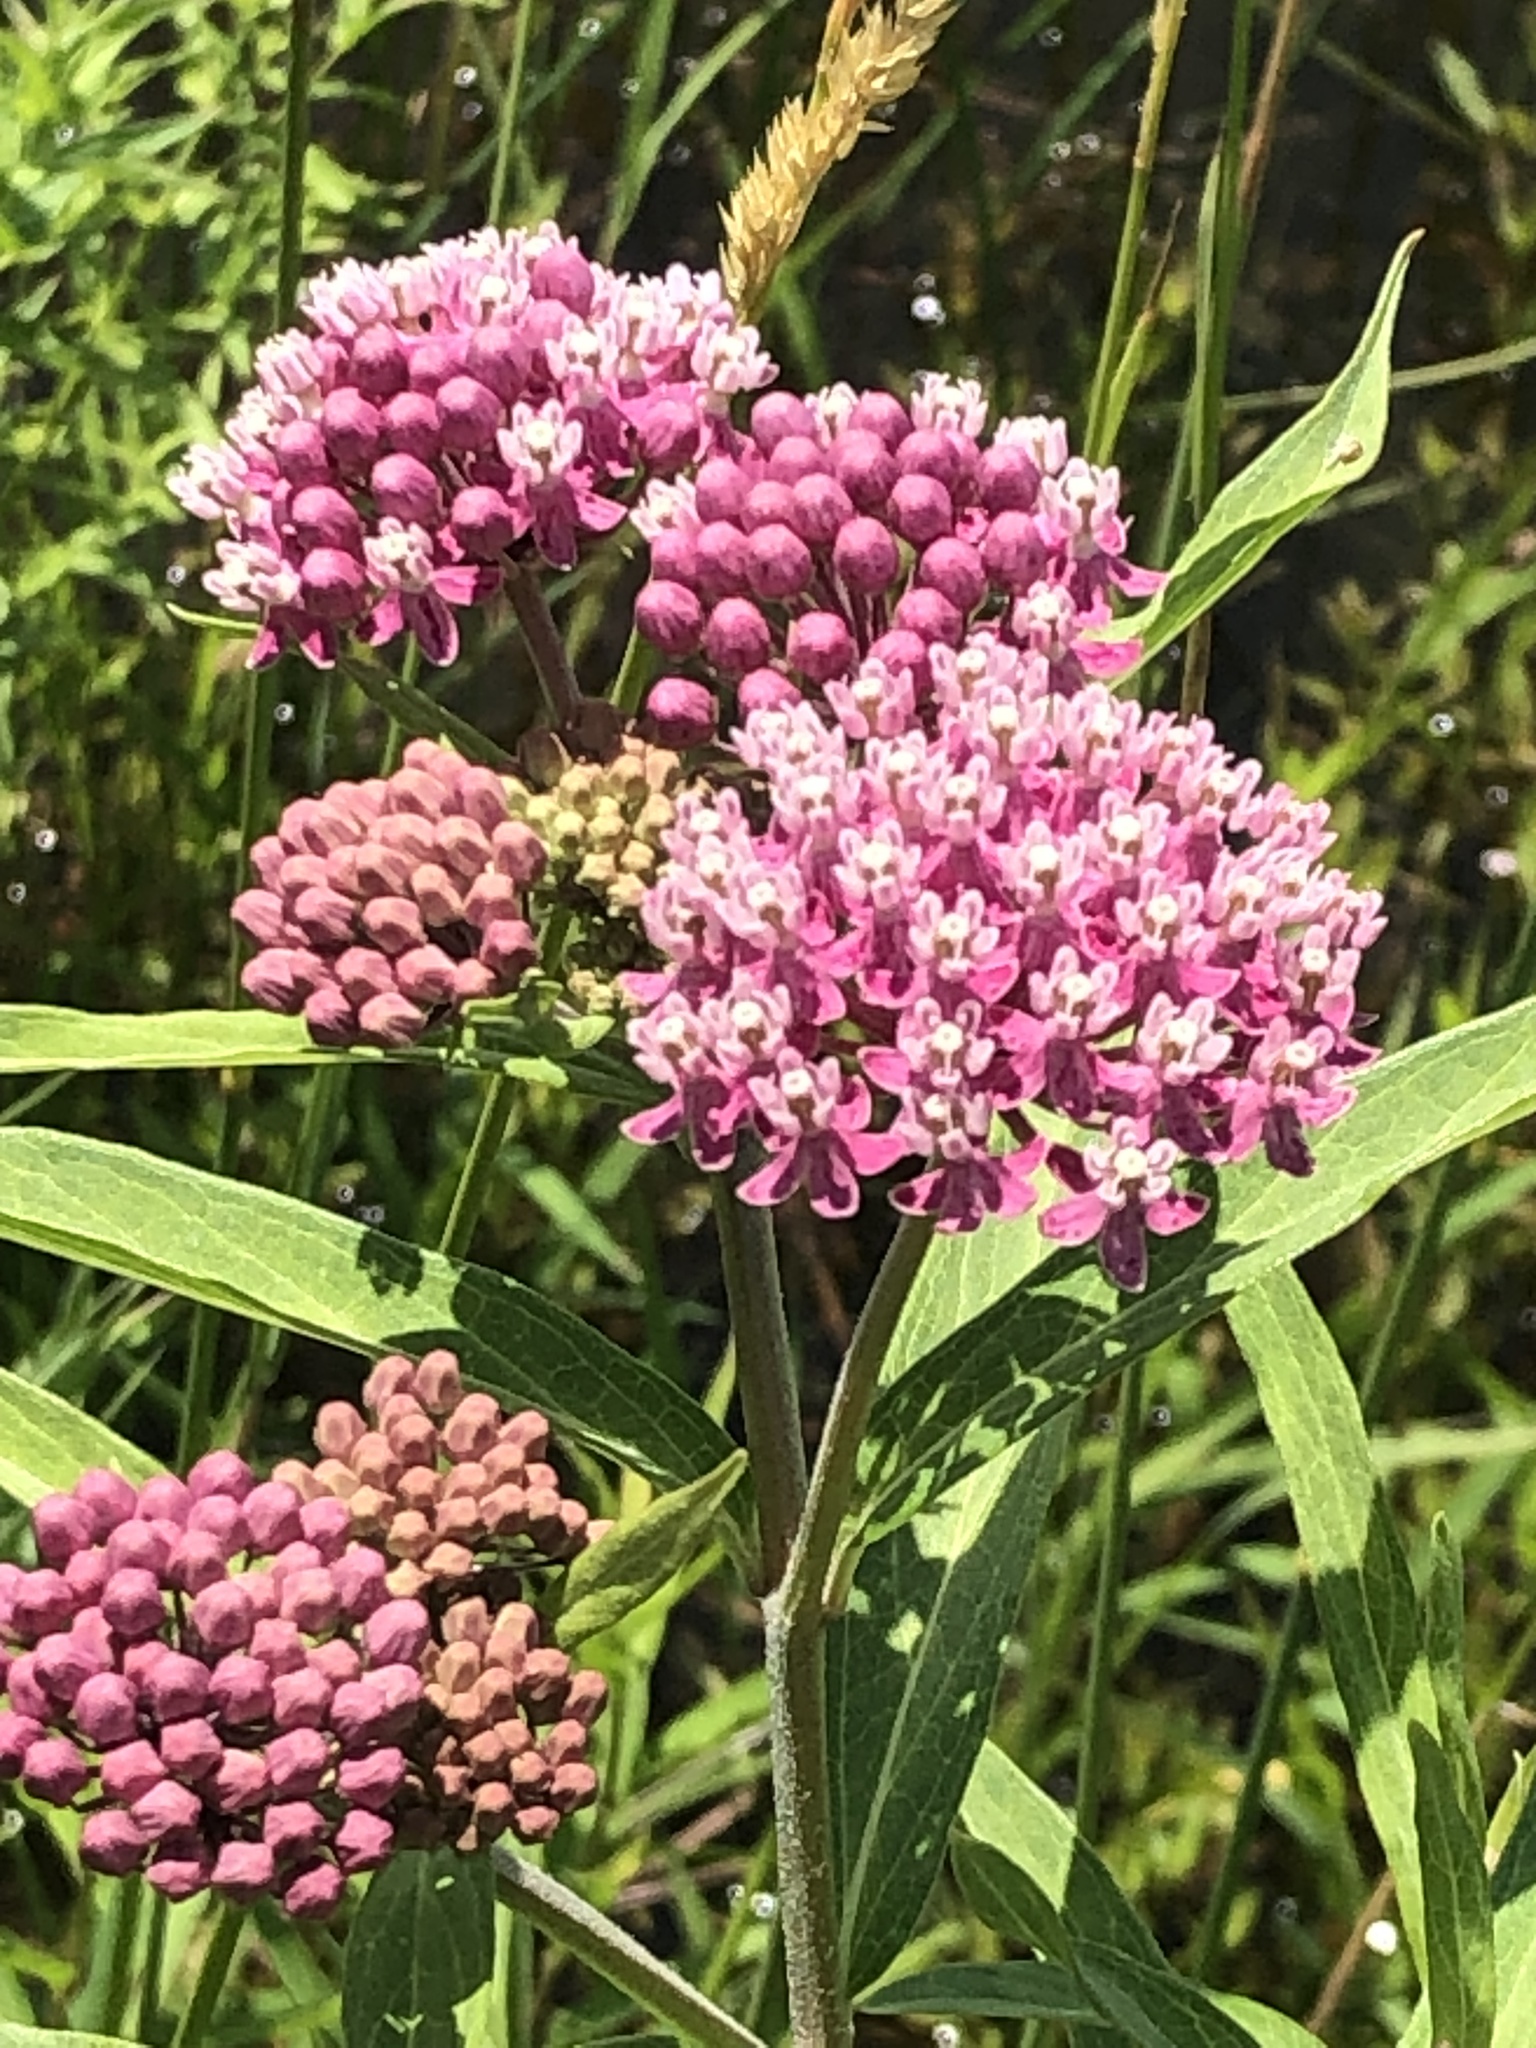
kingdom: Plantae
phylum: Tracheophyta
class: Magnoliopsida
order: Gentianales
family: Apocynaceae
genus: Asclepias
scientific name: Asclepias incarnata
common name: Swamp milkweed
